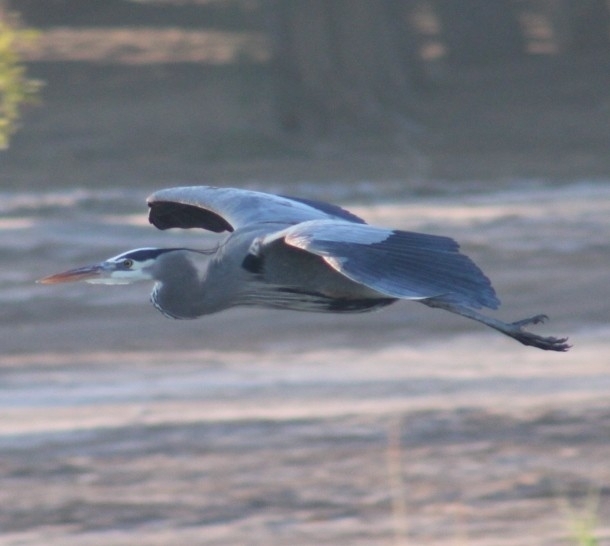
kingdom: Animalia
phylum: Chordata
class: Aves
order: Pelecaniformes
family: Ardeidae
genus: Ardea
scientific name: Ardea herodias
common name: Great blue heron
